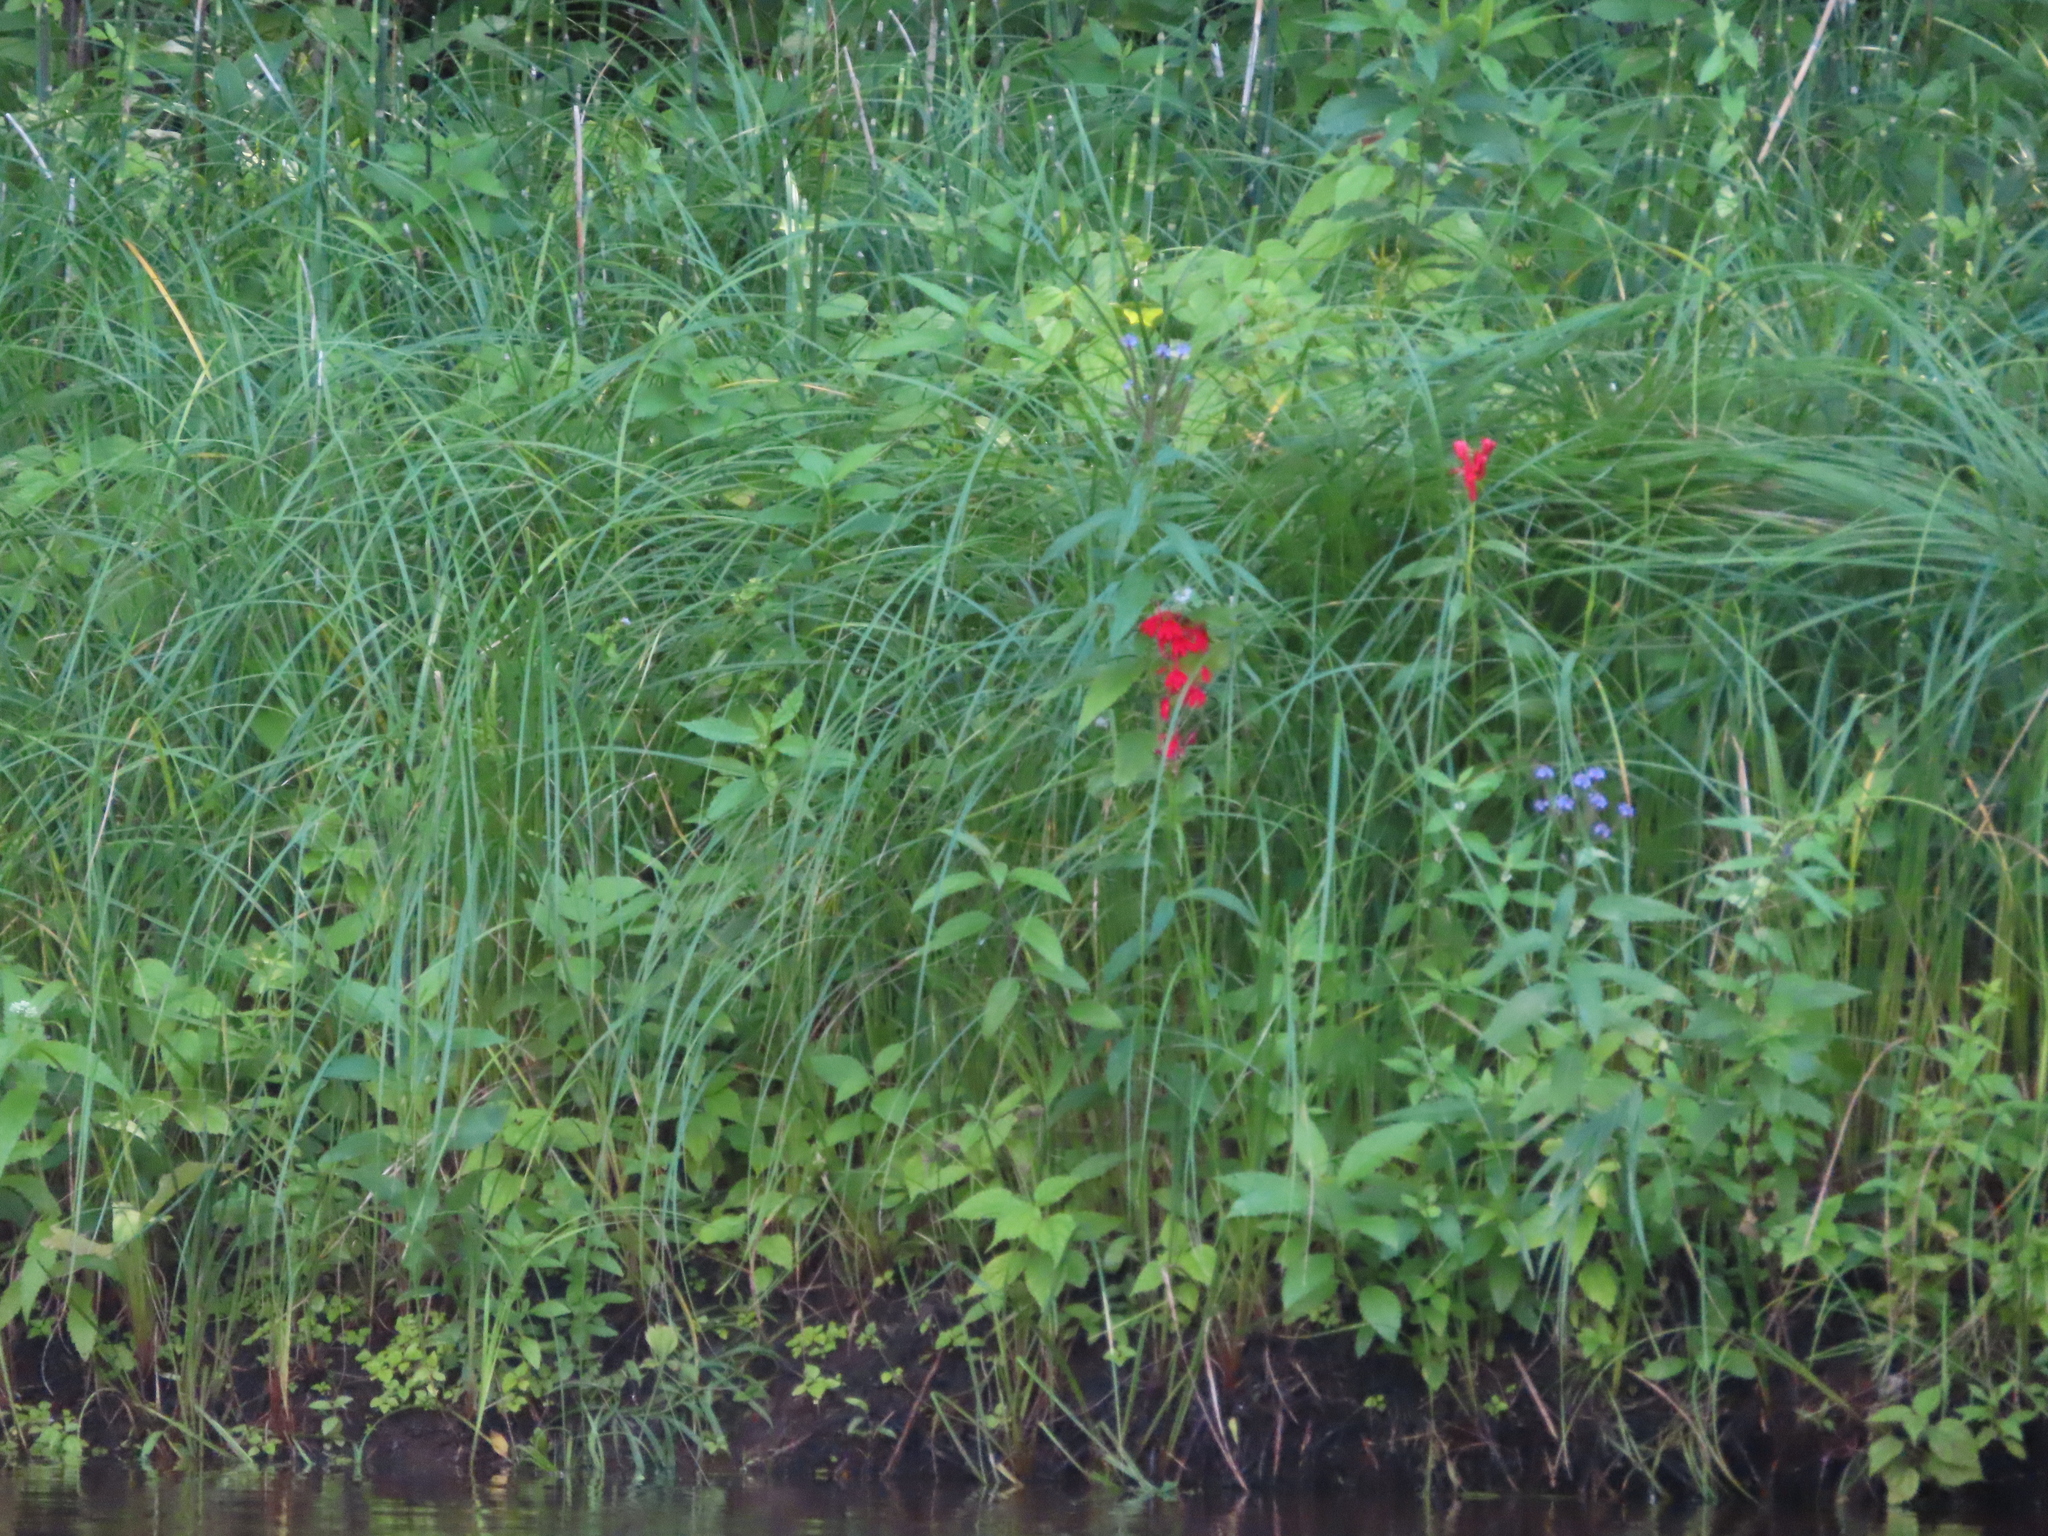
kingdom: Plantae
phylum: Tracheophyta
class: Magnoliopsida
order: Asterales
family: Campanulaceae
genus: Lobelia
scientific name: Lobelia cardinalis
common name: Cardinal flower
